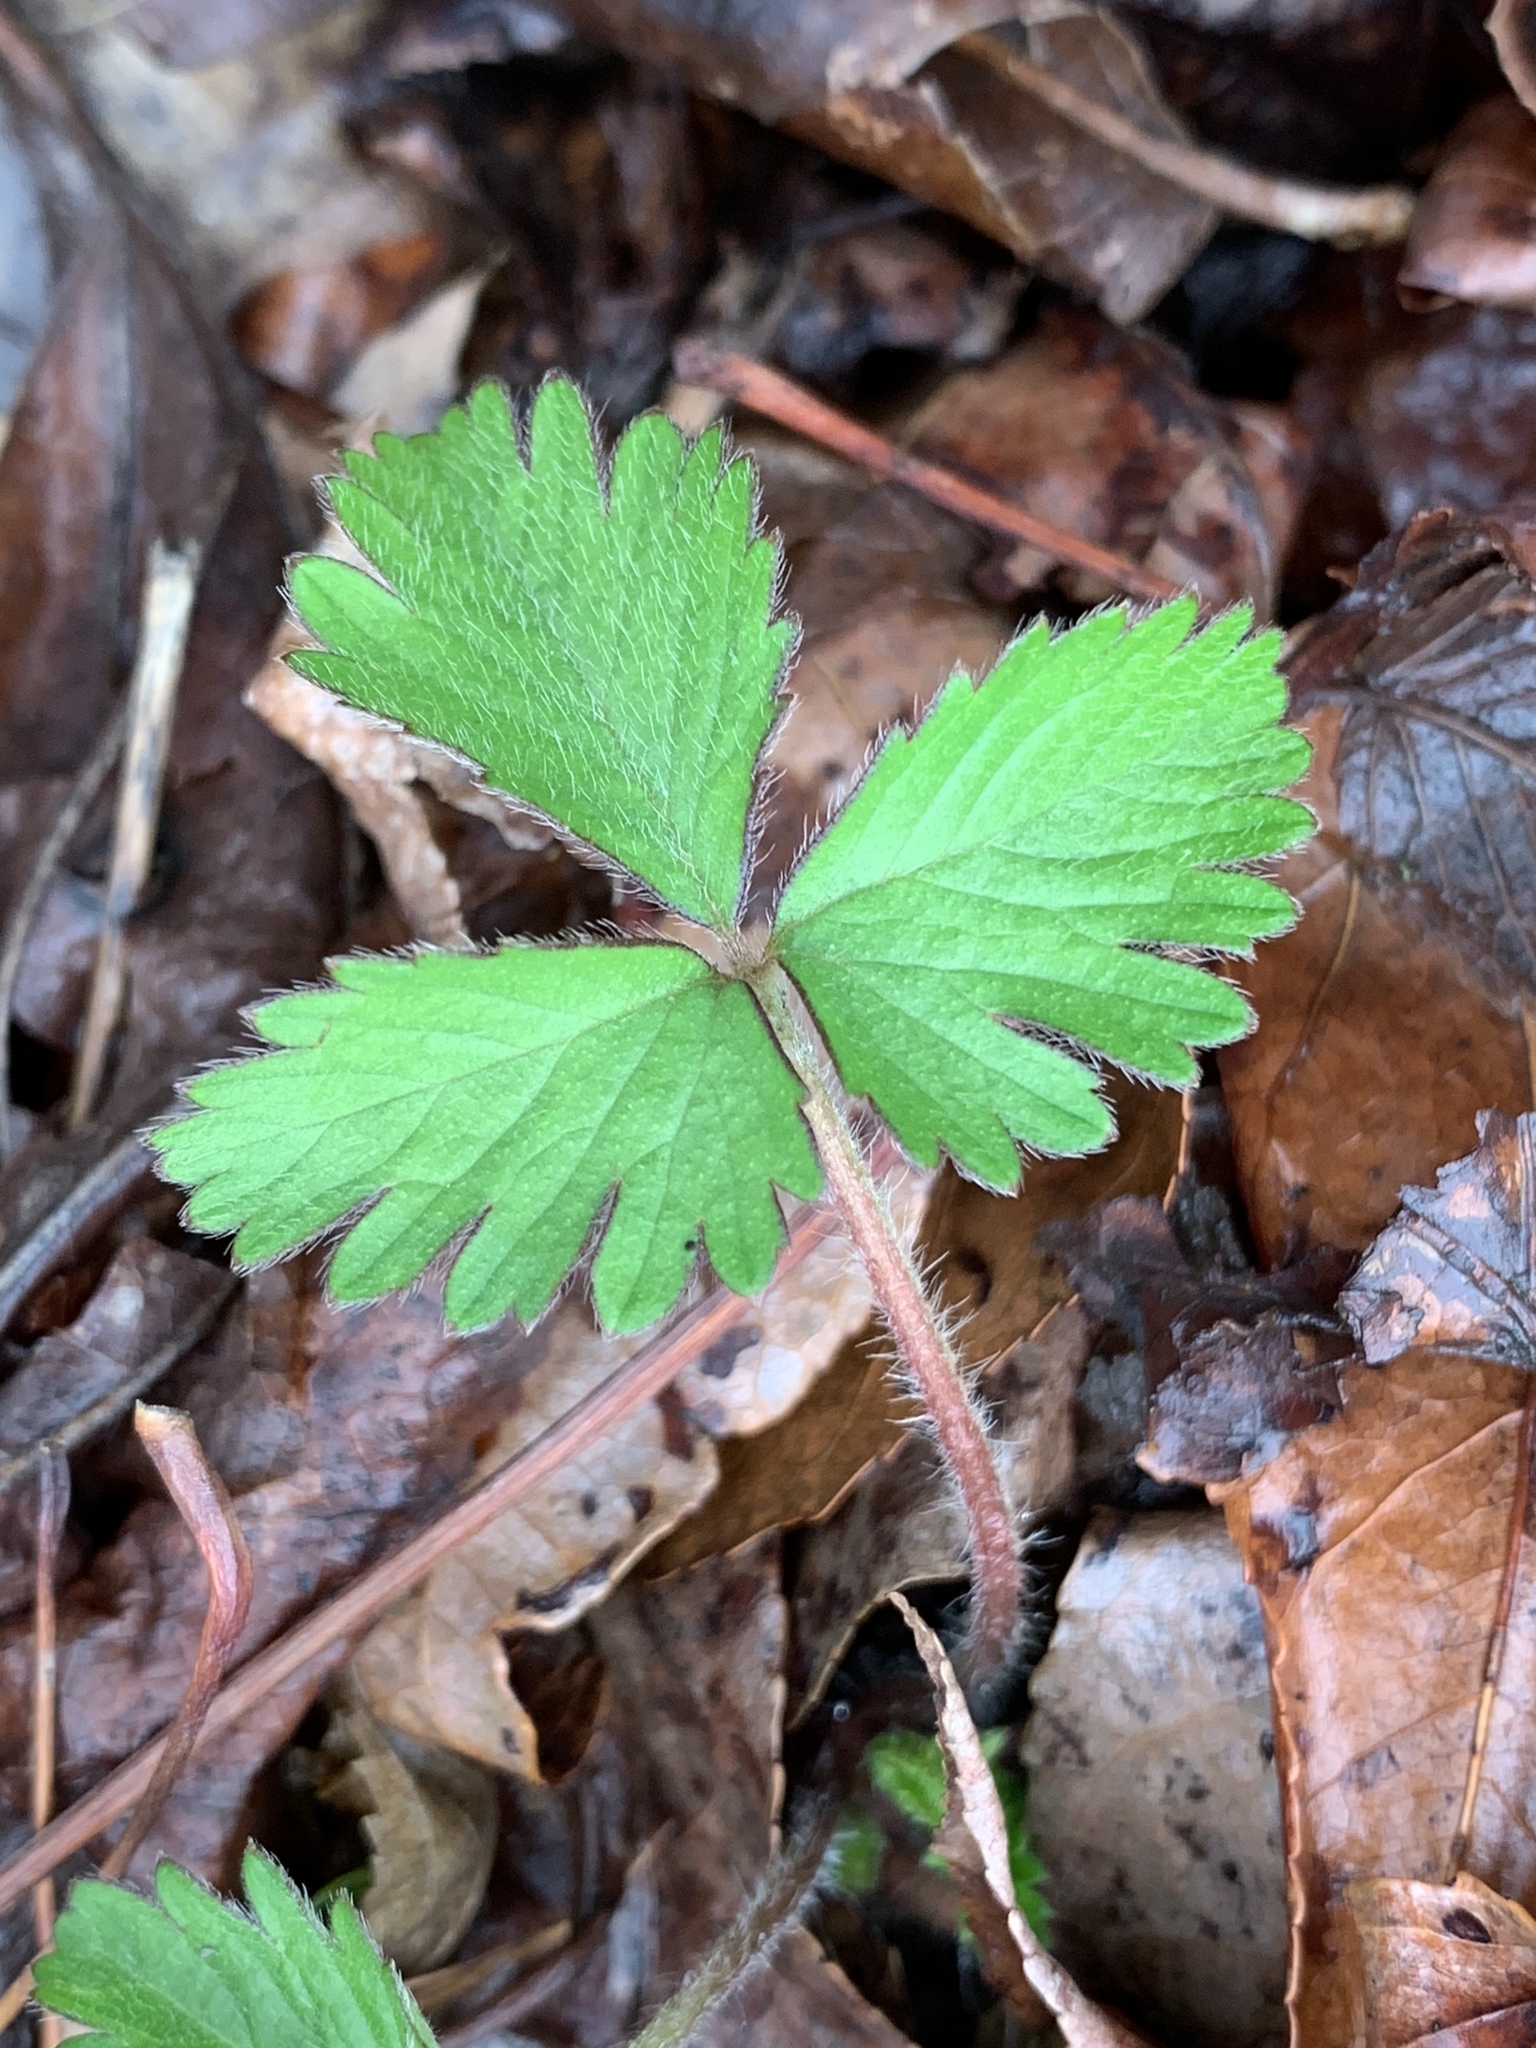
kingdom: Plantae
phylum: Tracheophyta
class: Magnoliopsida
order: Rosales
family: Rosaceae
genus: Potentilla
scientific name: Potentilla indica
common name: Yellow-flowered strawberry
